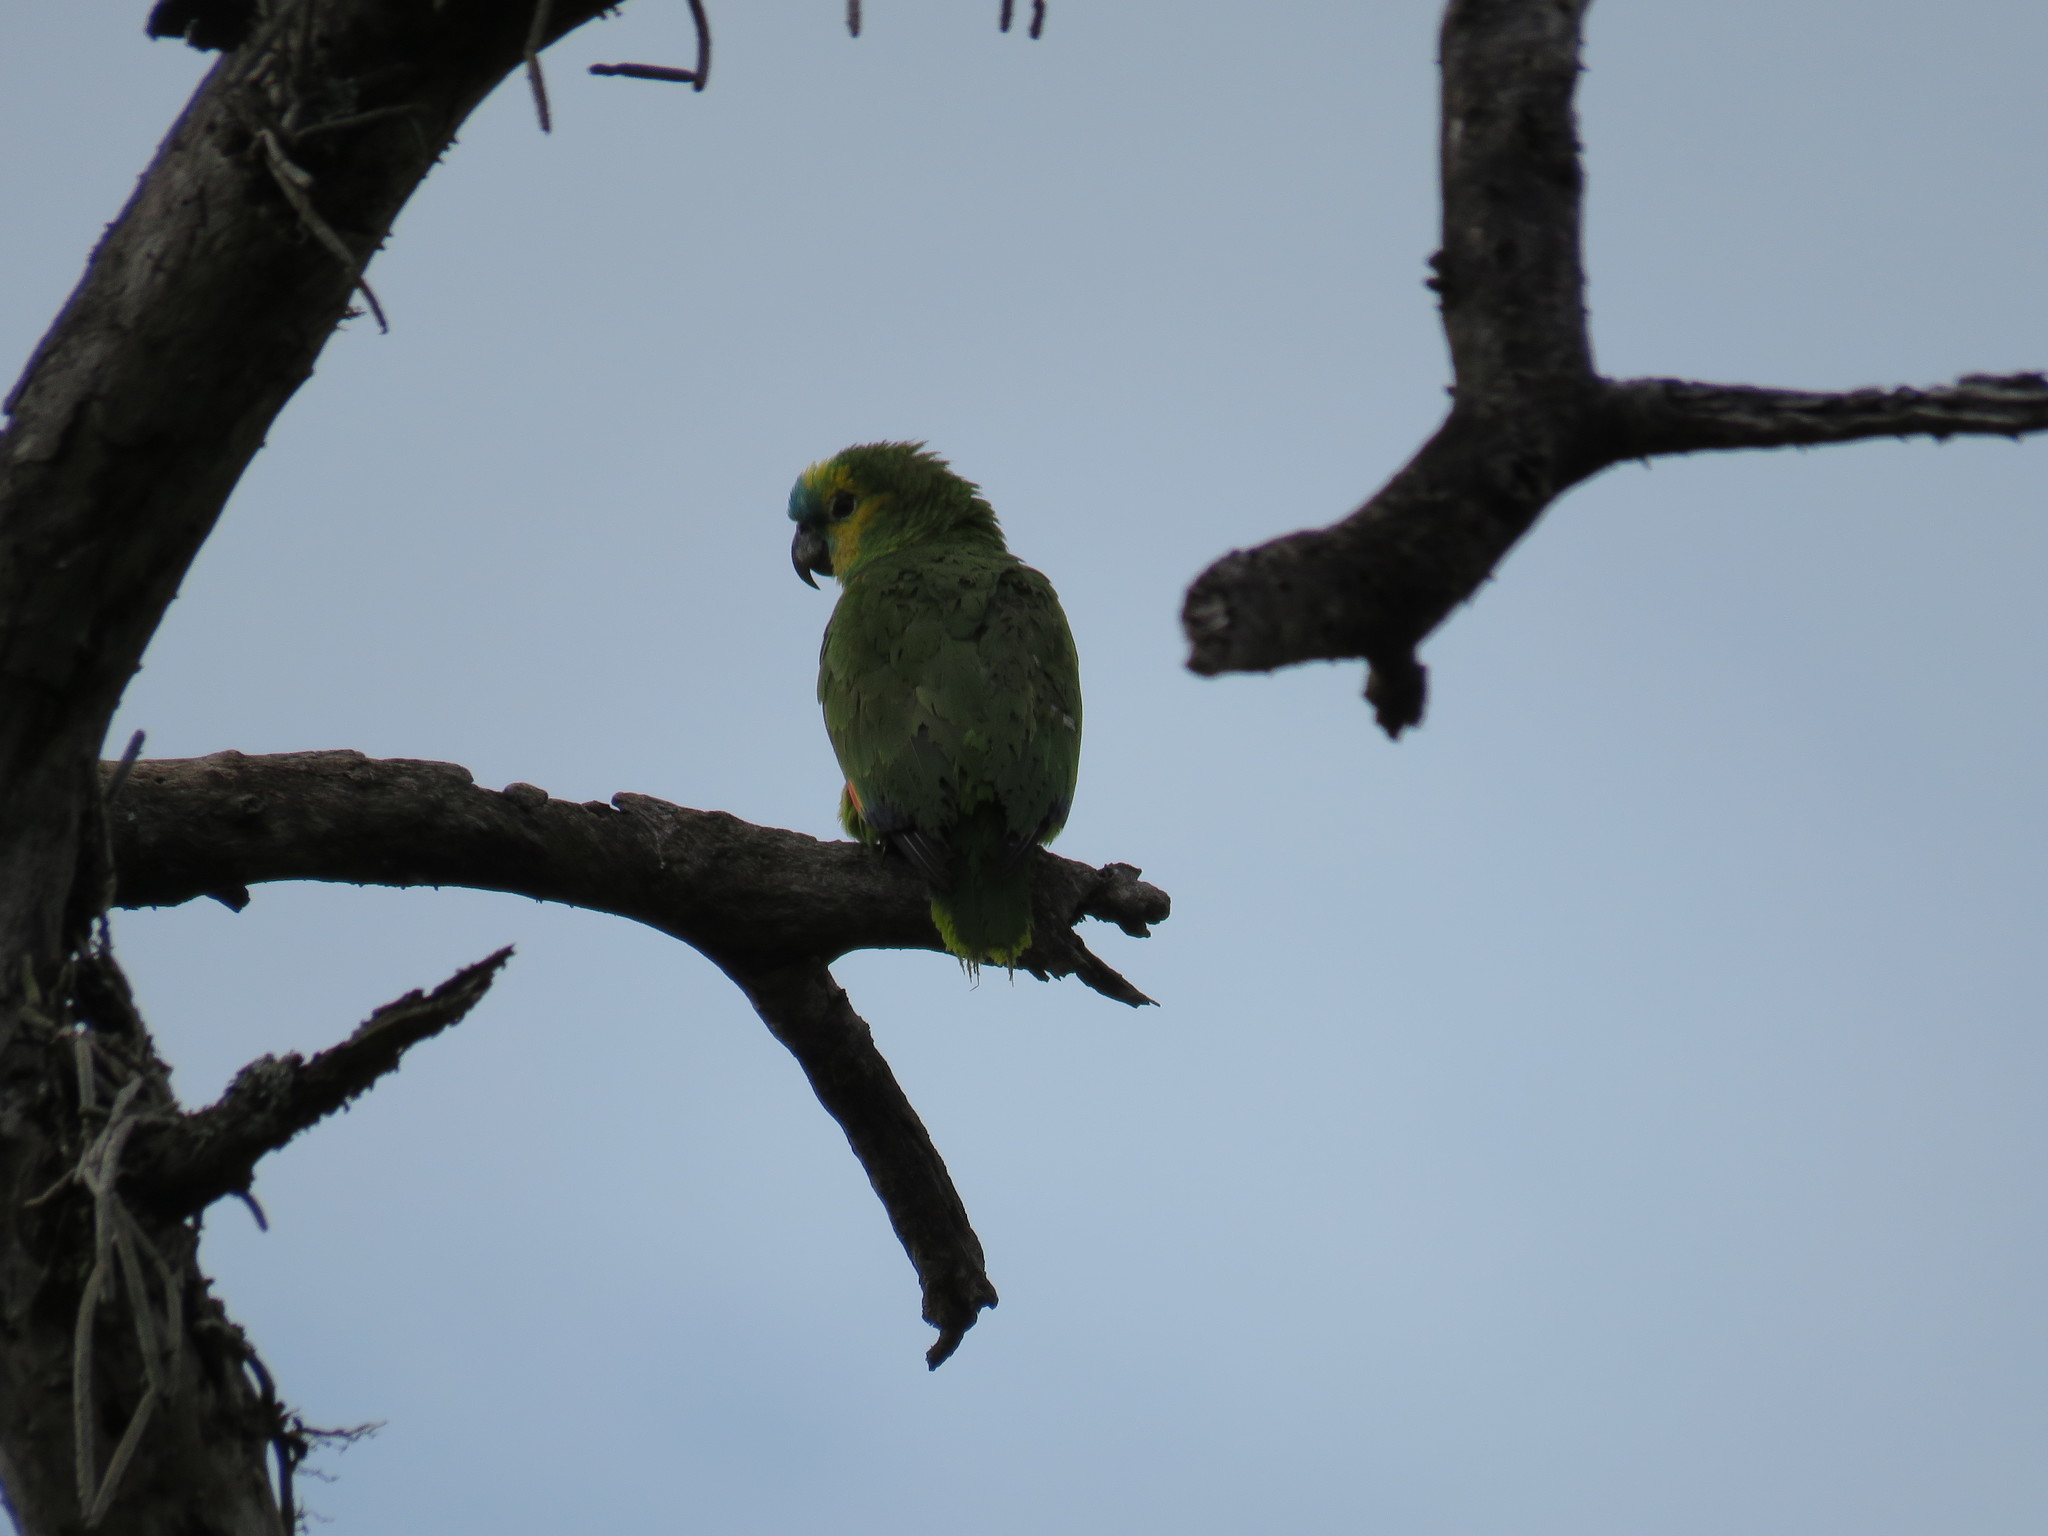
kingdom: Animalia
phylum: Chordata
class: Aves
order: Psittaciformes
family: Psittacidae
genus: Amazona
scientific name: Amazona aestiva
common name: Turquoise-fronted amazon
